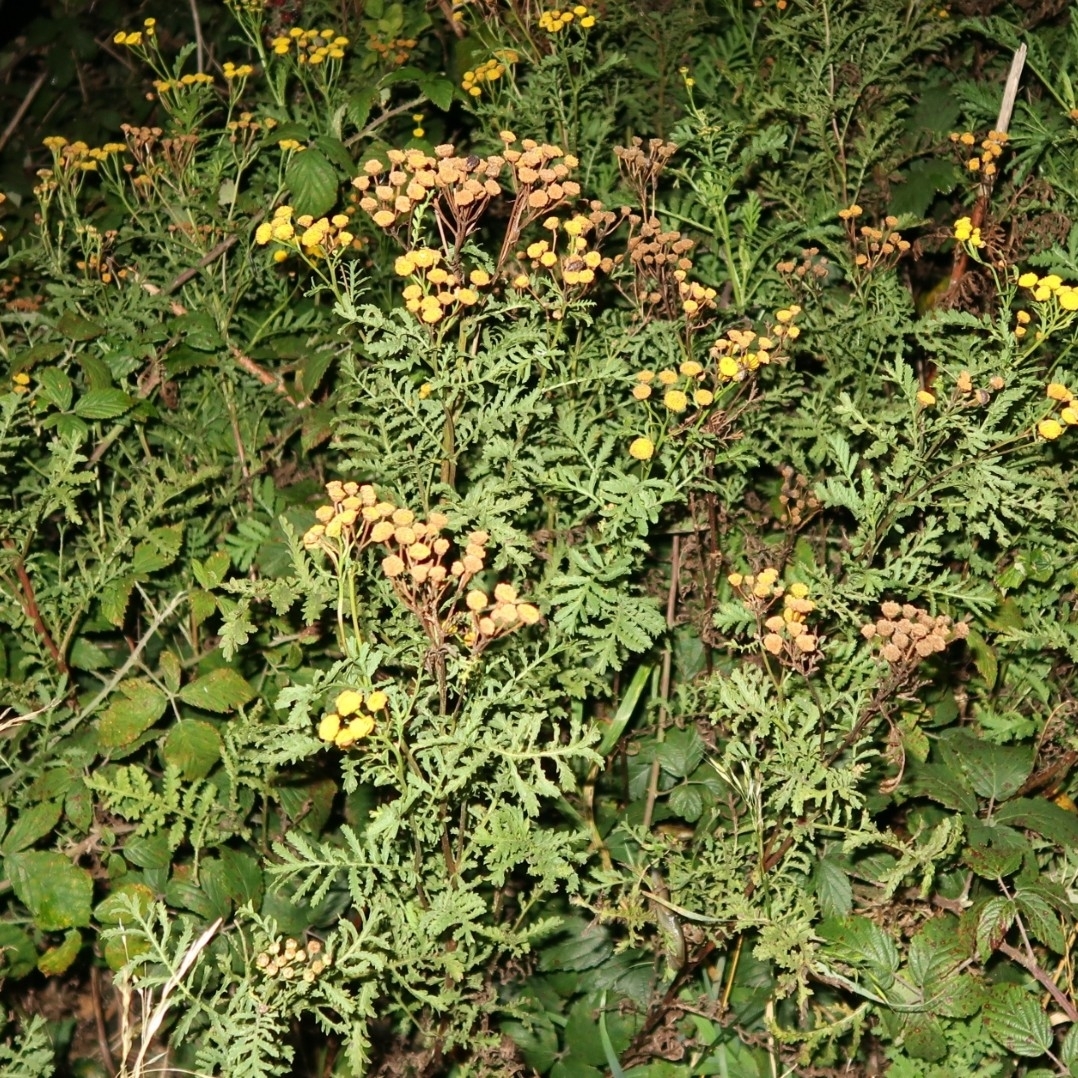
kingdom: Plantae
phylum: Tracheophyta
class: Magnoliopsida
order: Asterales
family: Asteraceae
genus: Tanacetum
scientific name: Tanacetum vulgare
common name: Common tansy
